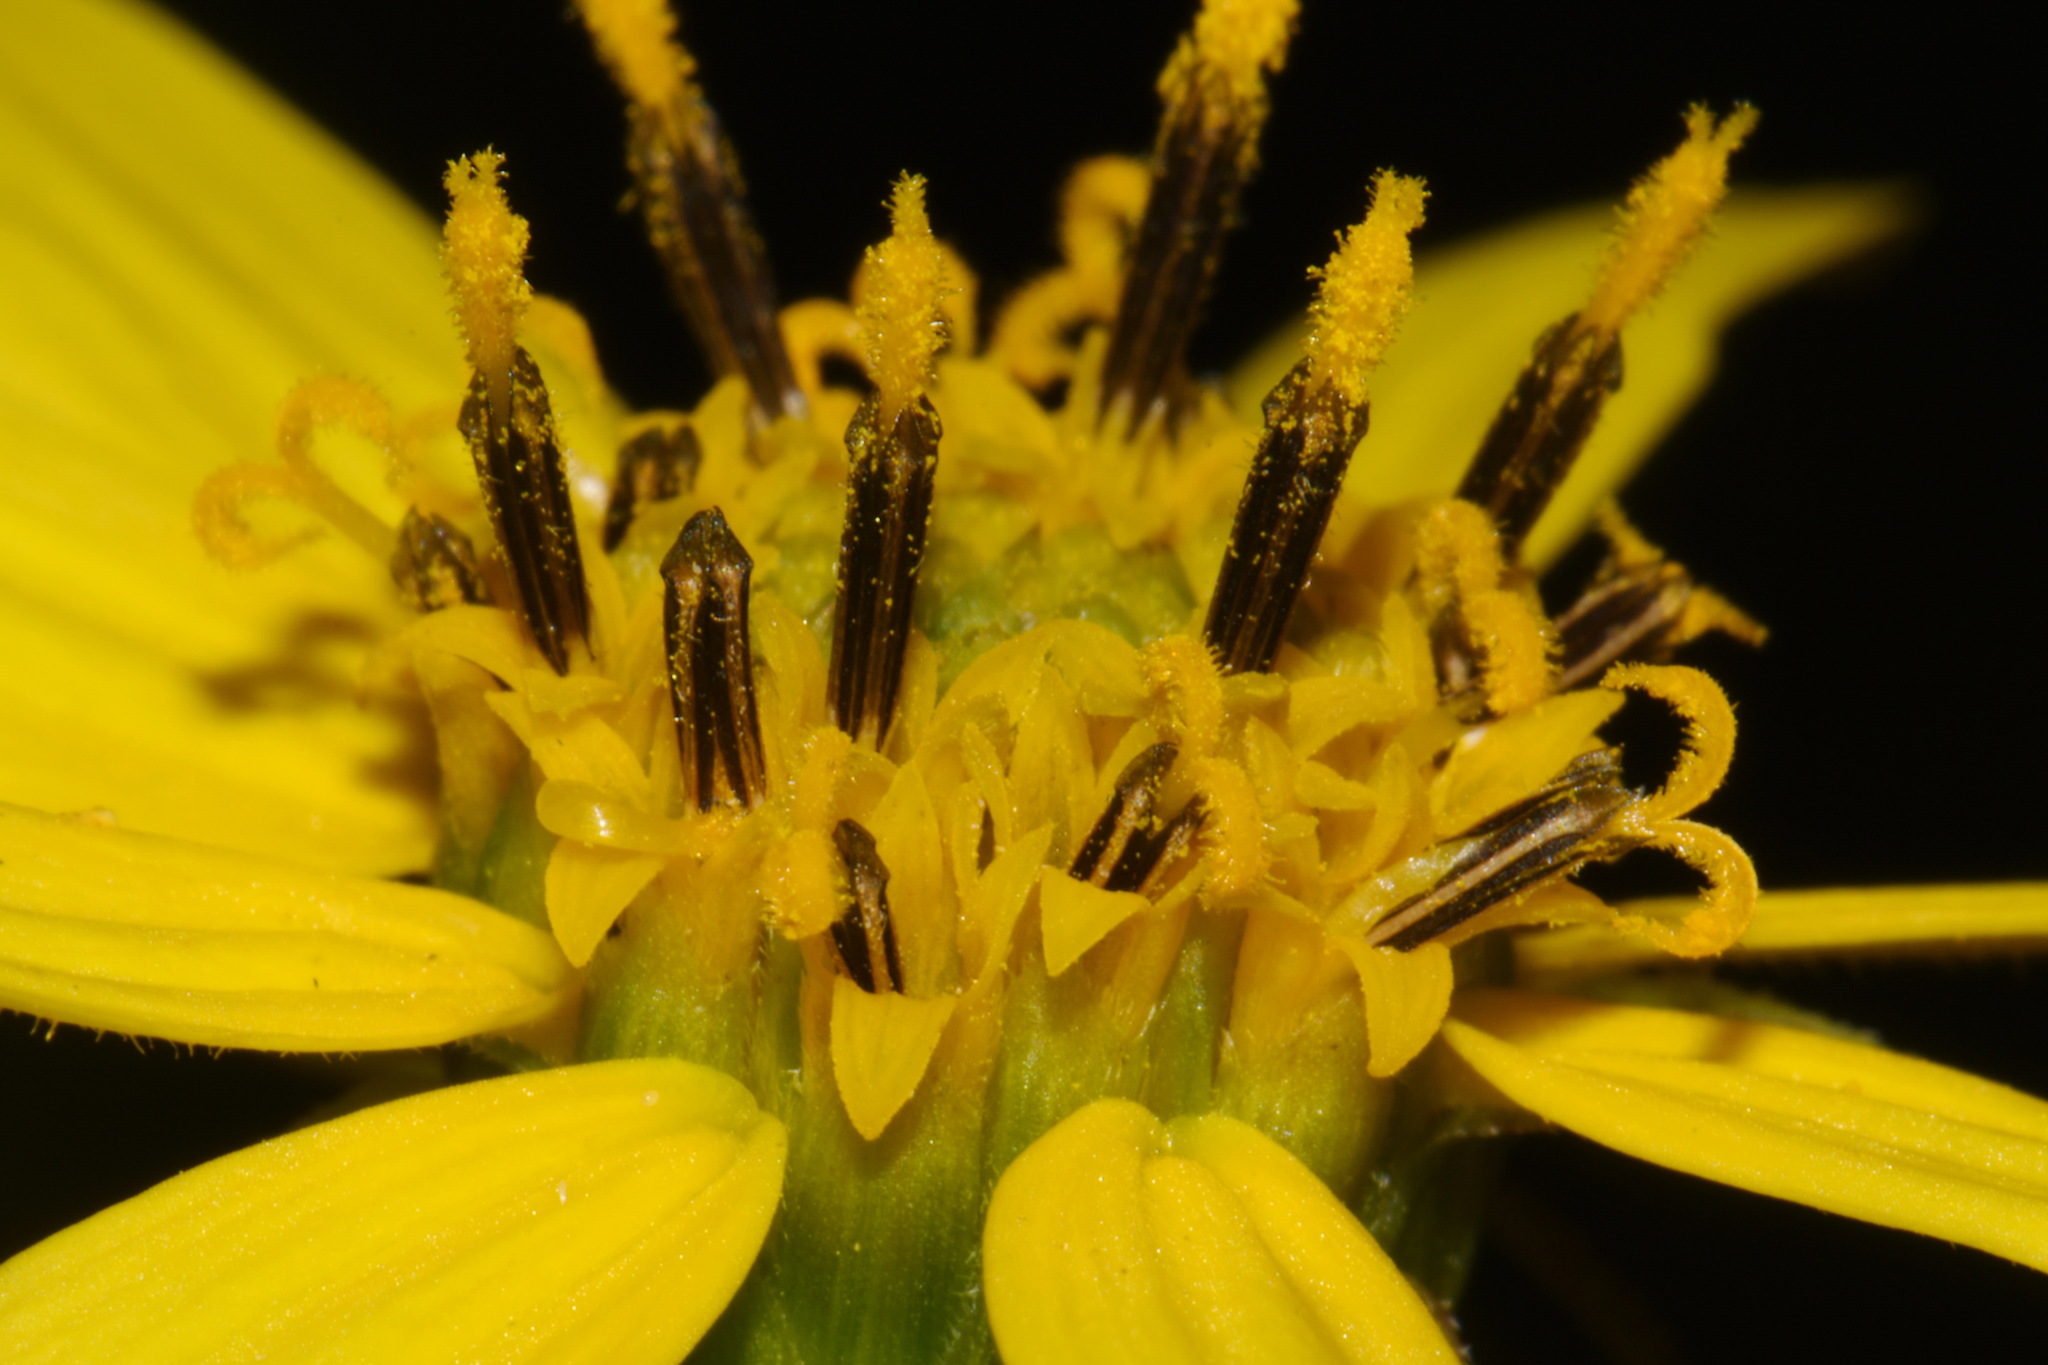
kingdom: Plantae
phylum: Tracheophyta
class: Magnoliopsida
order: Asterales
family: Asteraceae
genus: Helianthus
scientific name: Helianthus smithii
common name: Smith's sunflower
